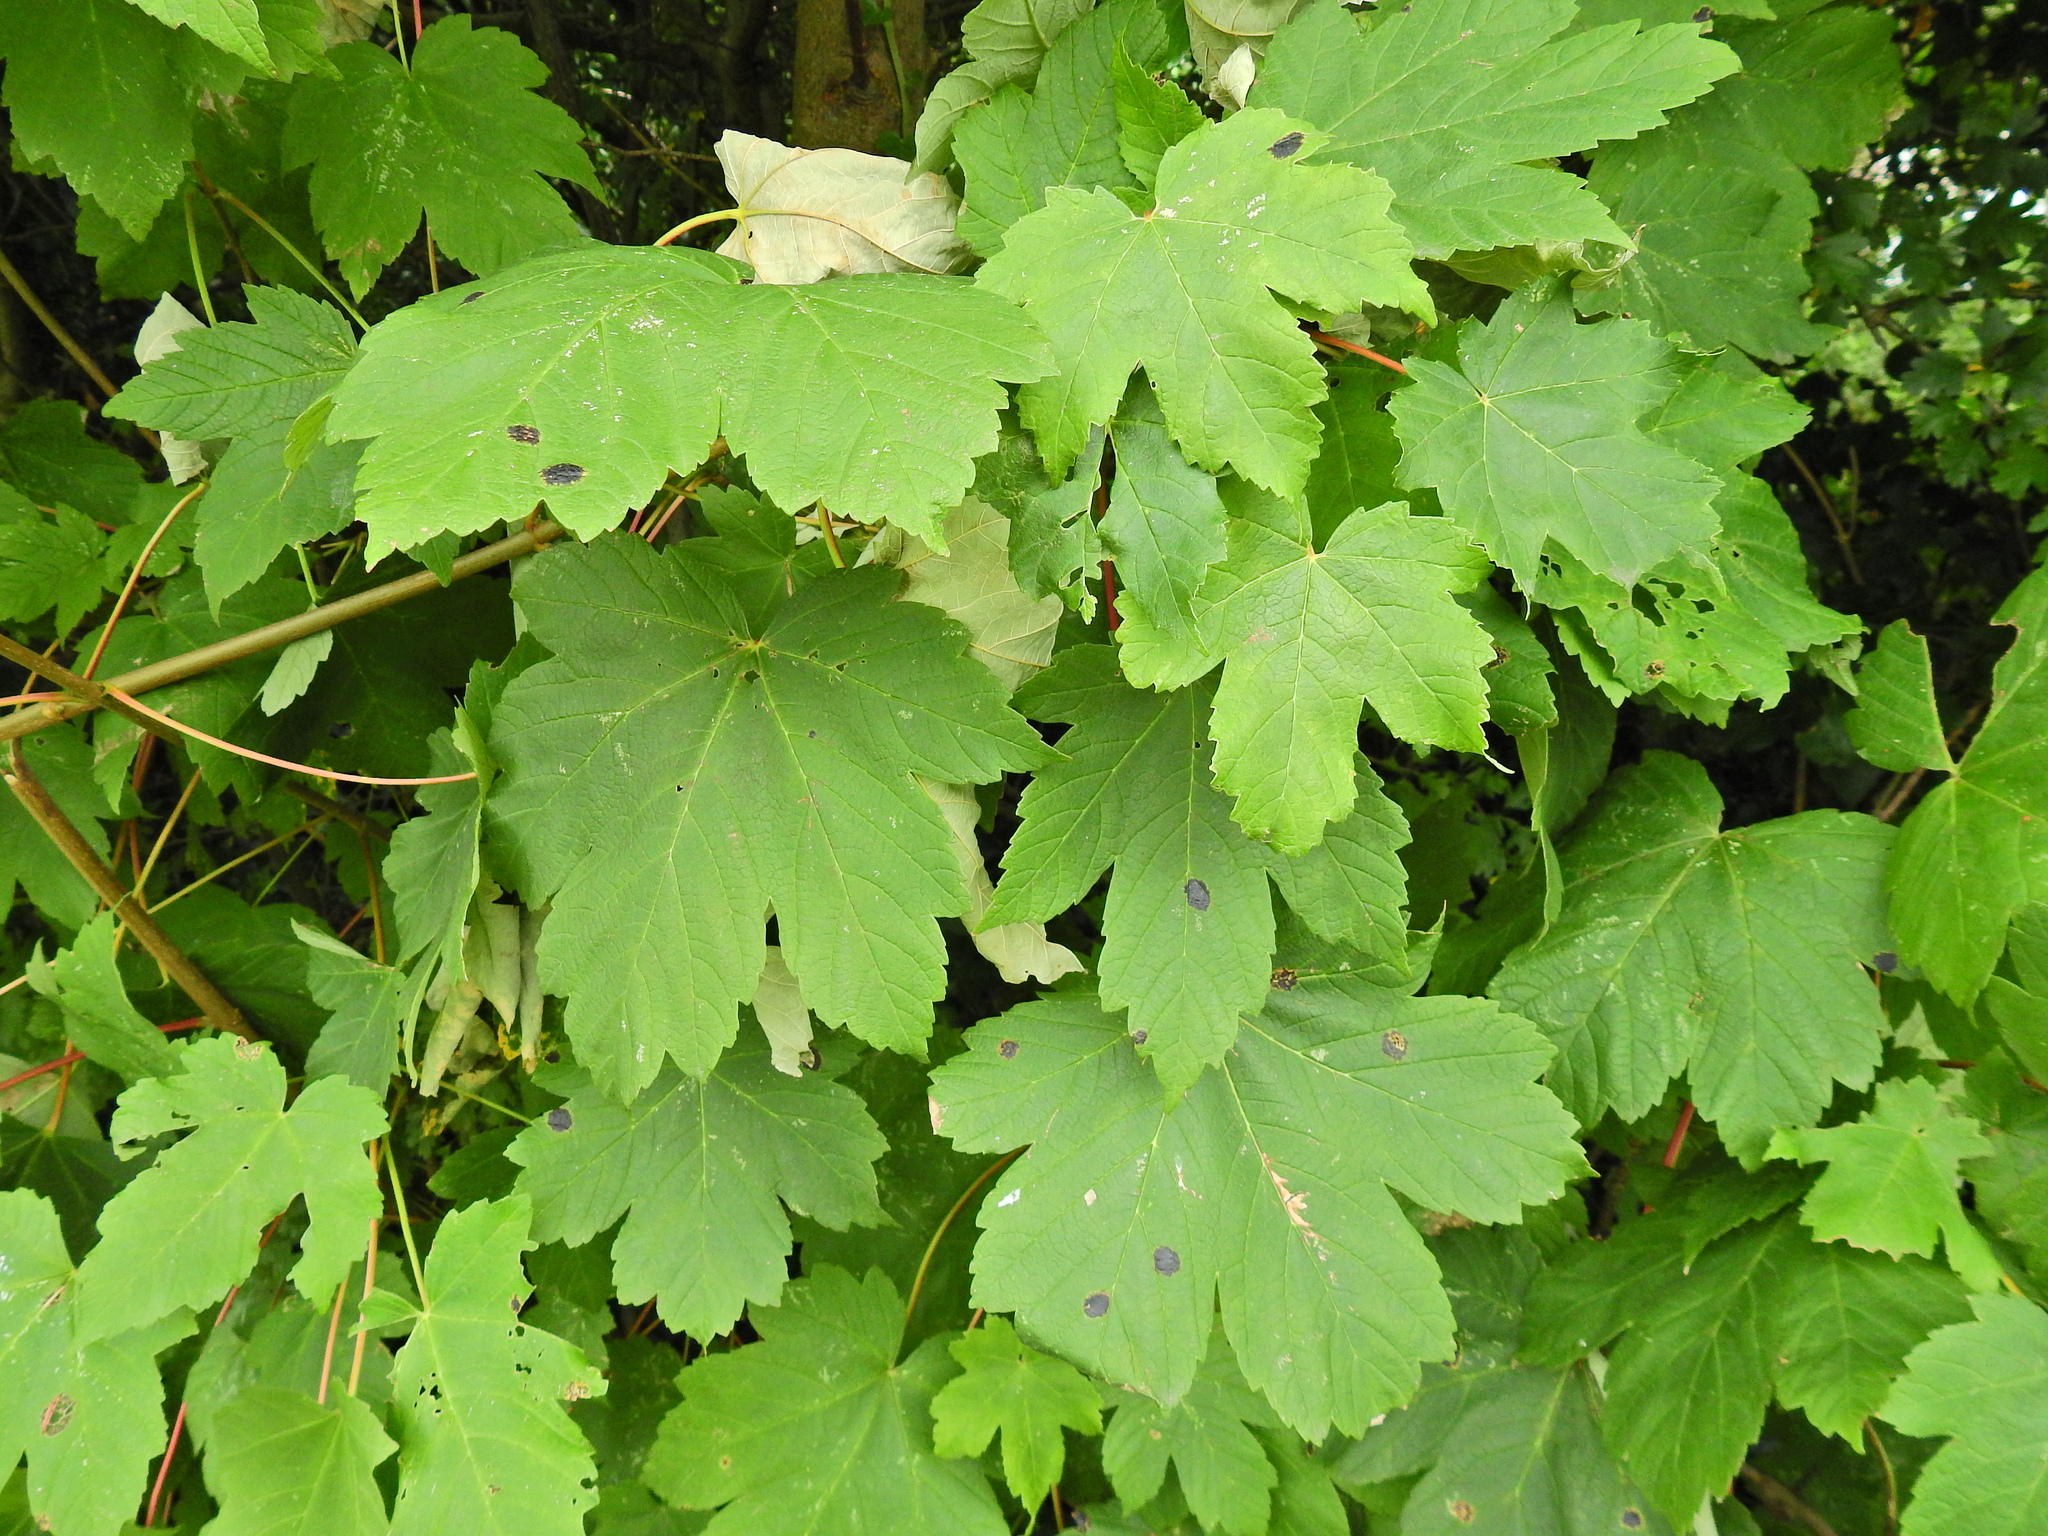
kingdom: Plantae
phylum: Tracheophyta
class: Magnoliopsida
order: Sapindales
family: Sapindaceae
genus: Acer
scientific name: Acer pseudoplatanus
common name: Sycamore
